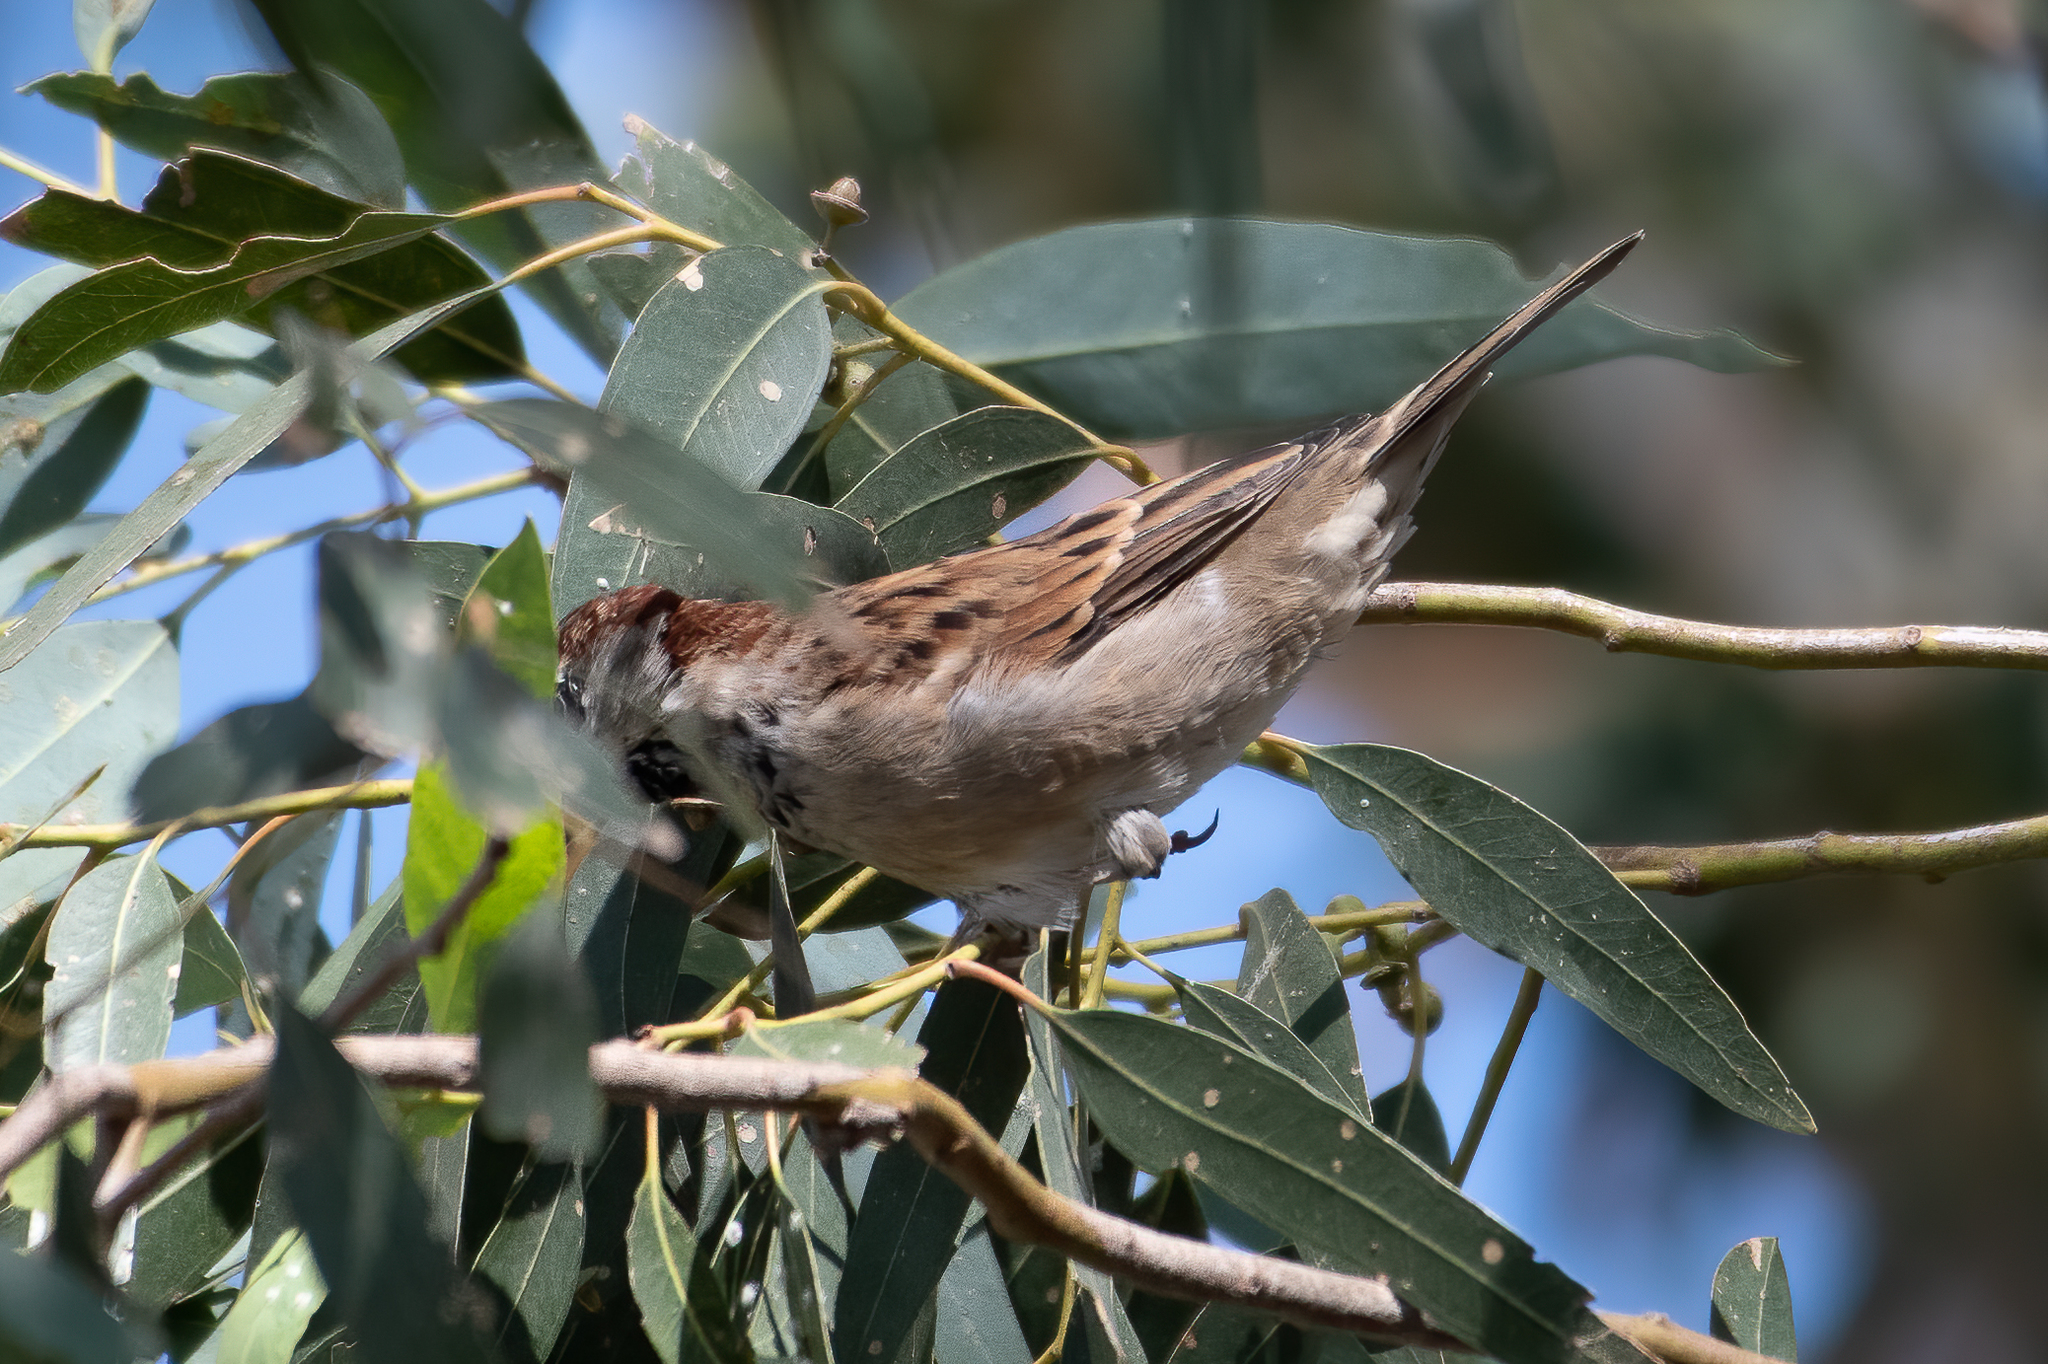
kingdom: Animalia
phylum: Chordata
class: Aves
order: Passeriformes
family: Passeridae
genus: Passer
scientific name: Passer domesticus
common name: House sparrow
